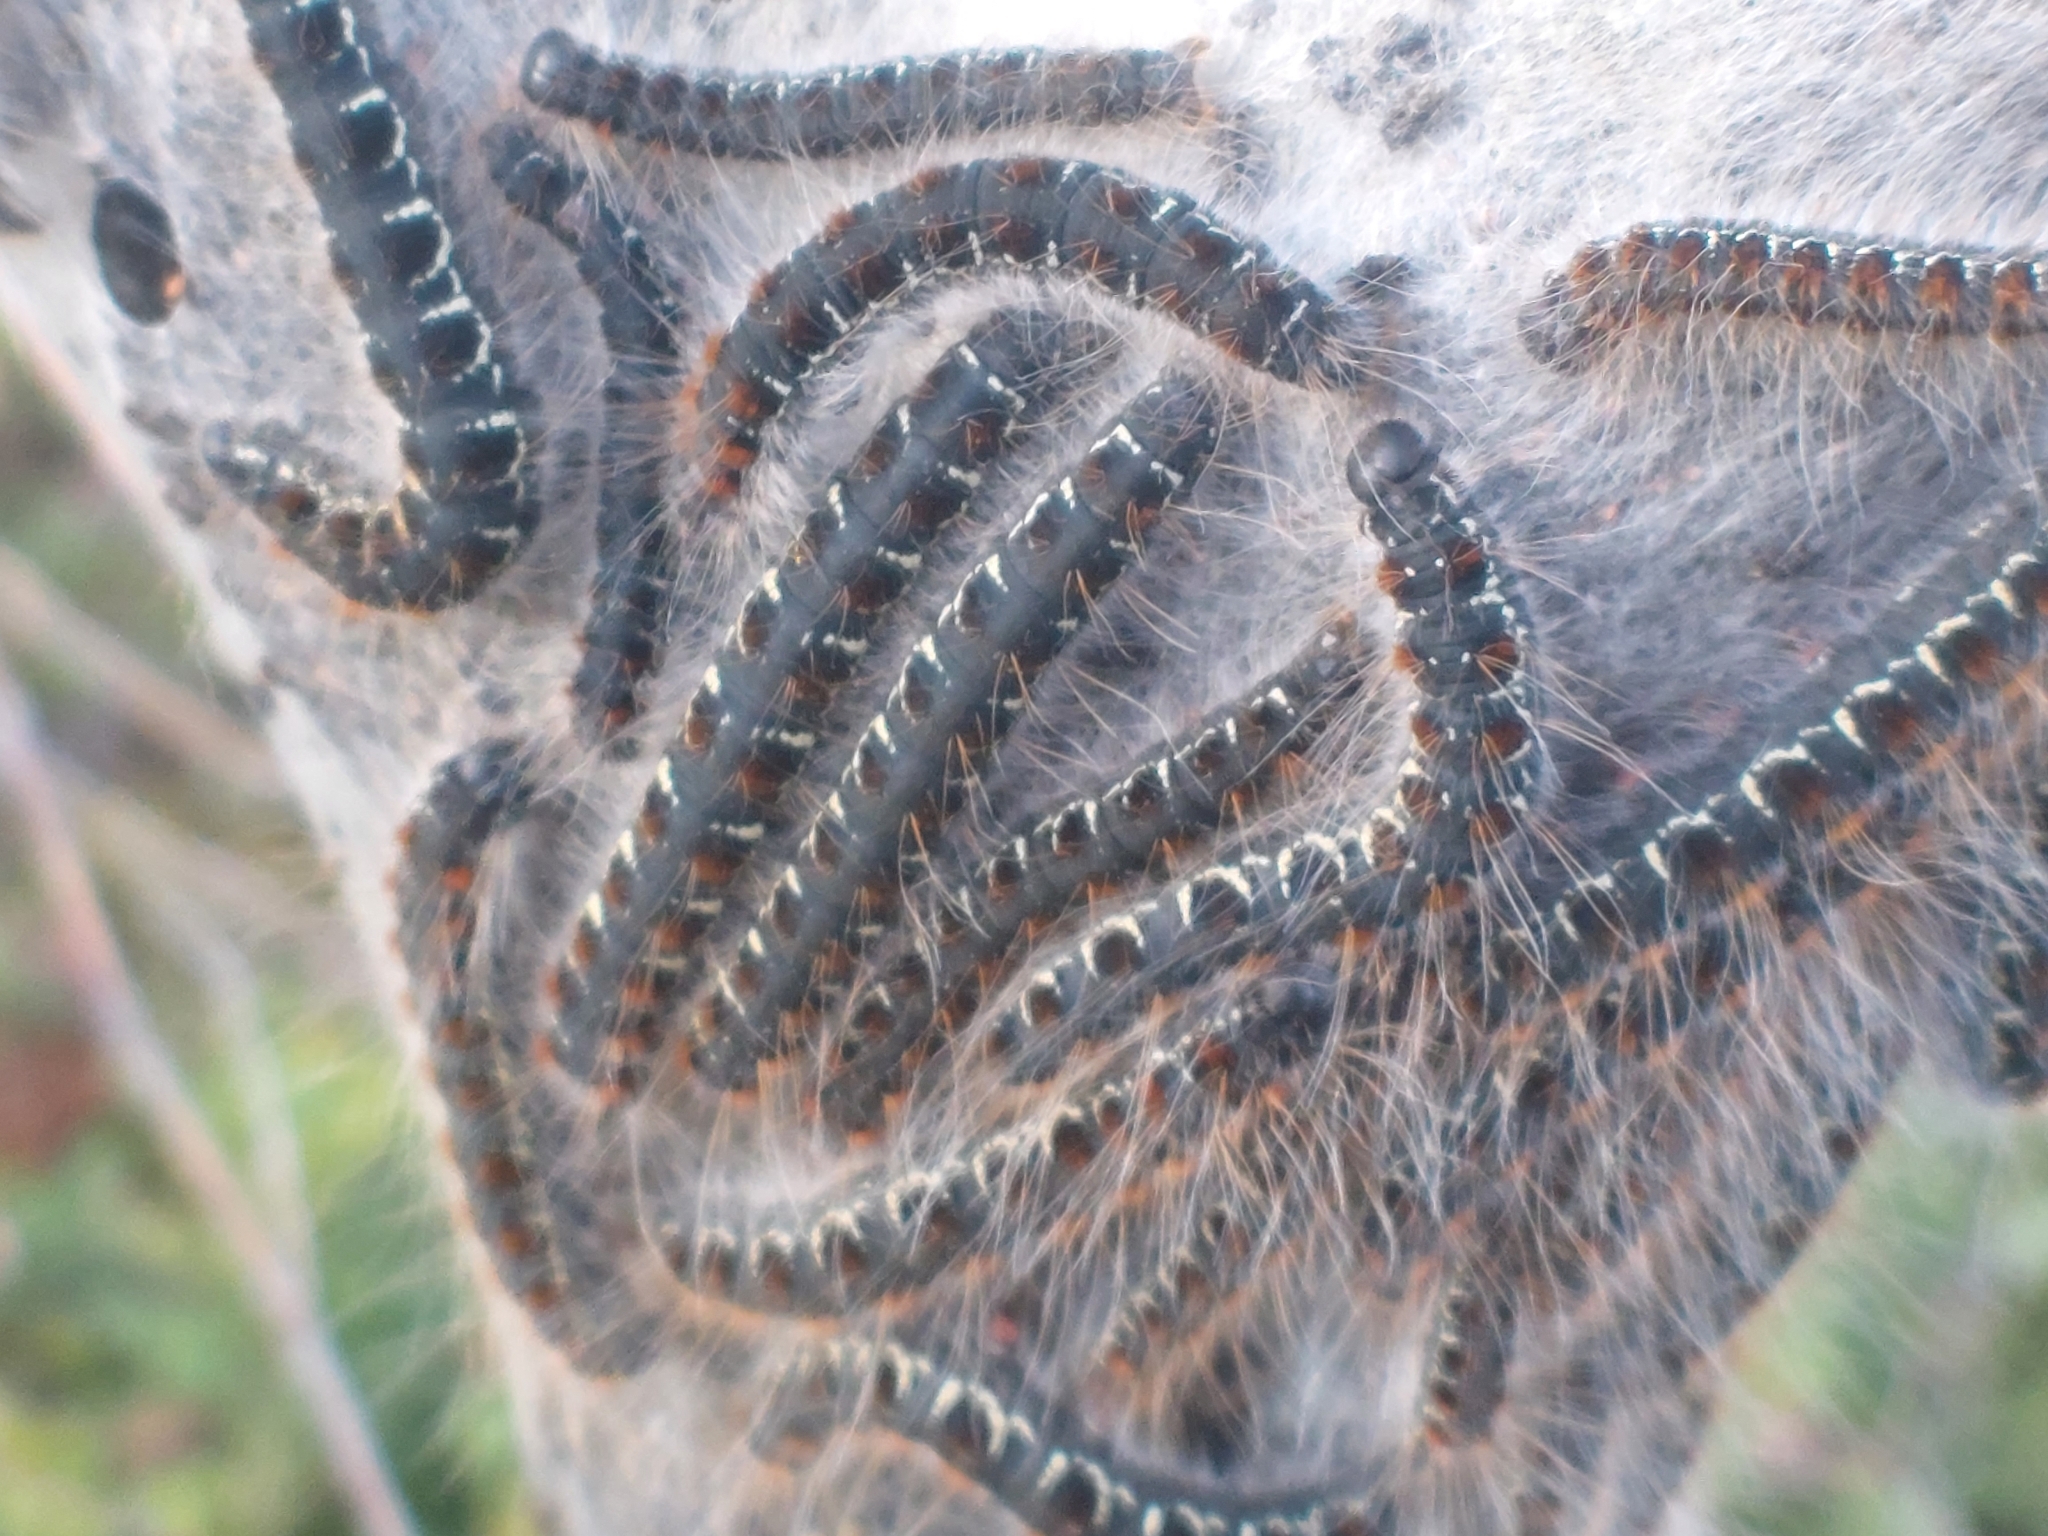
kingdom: Animalia
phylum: Arthropoda
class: Insecta
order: Lepidoptera
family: Lasiocampidae
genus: Eriogaster
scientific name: Eriogaster lanestris
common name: Small eggar
